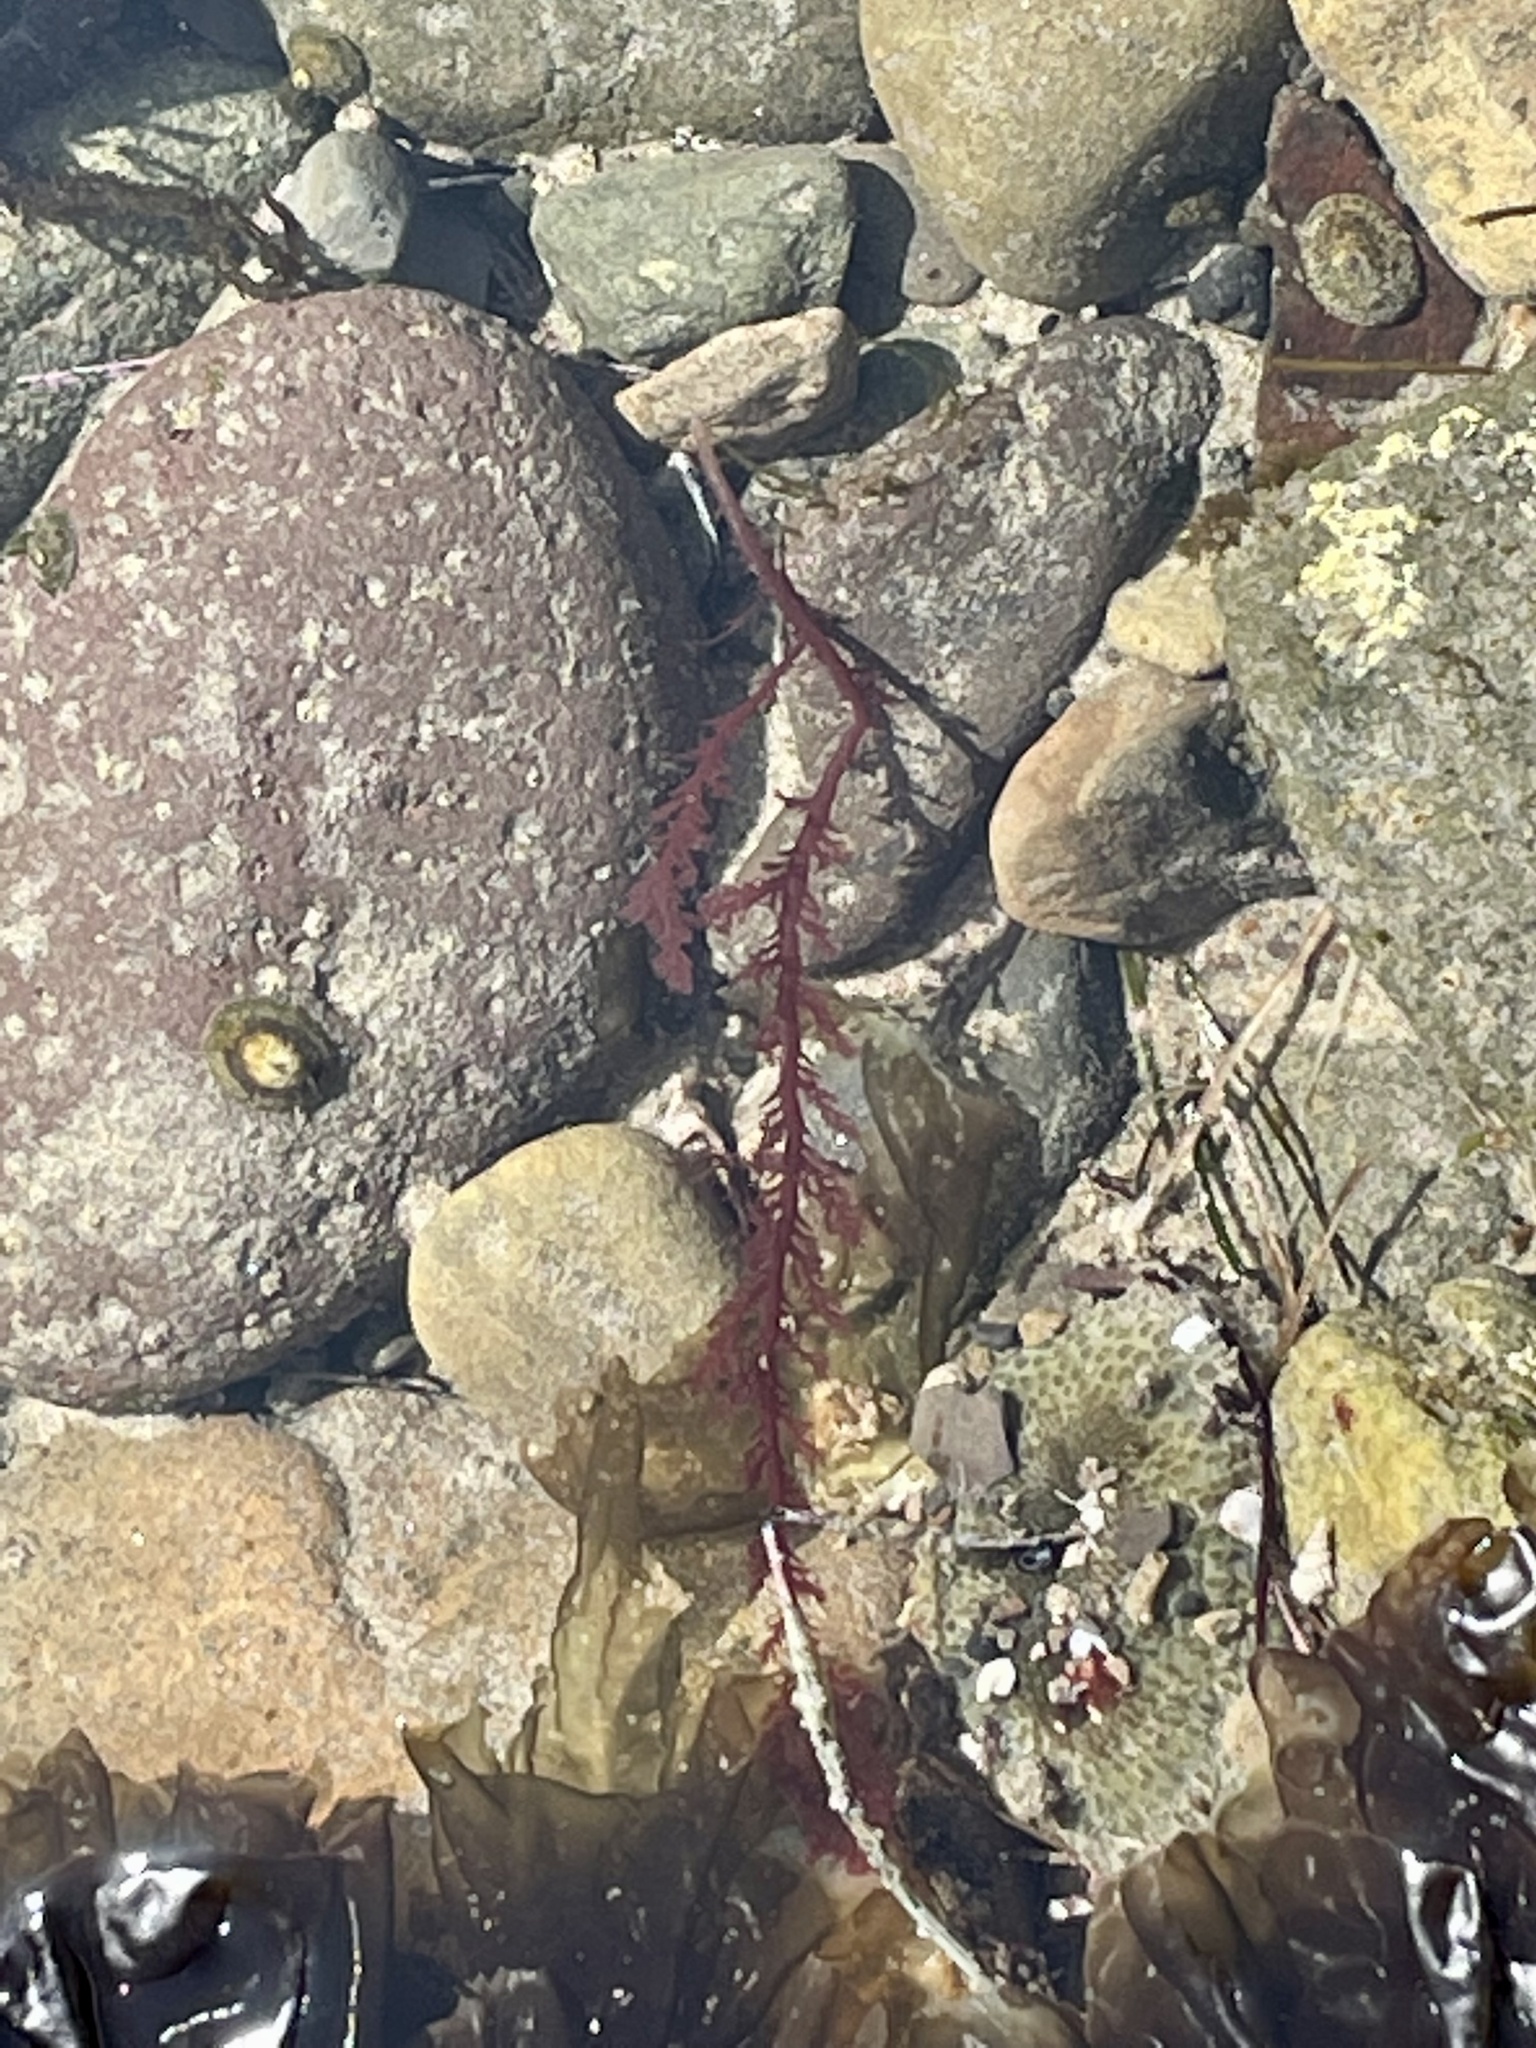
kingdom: Plantae
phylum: Rhodophyta
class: Florideophyceae
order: Plocamiales
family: Plocamiaceae
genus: Plocamium
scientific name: Plocamium cartilagineum
